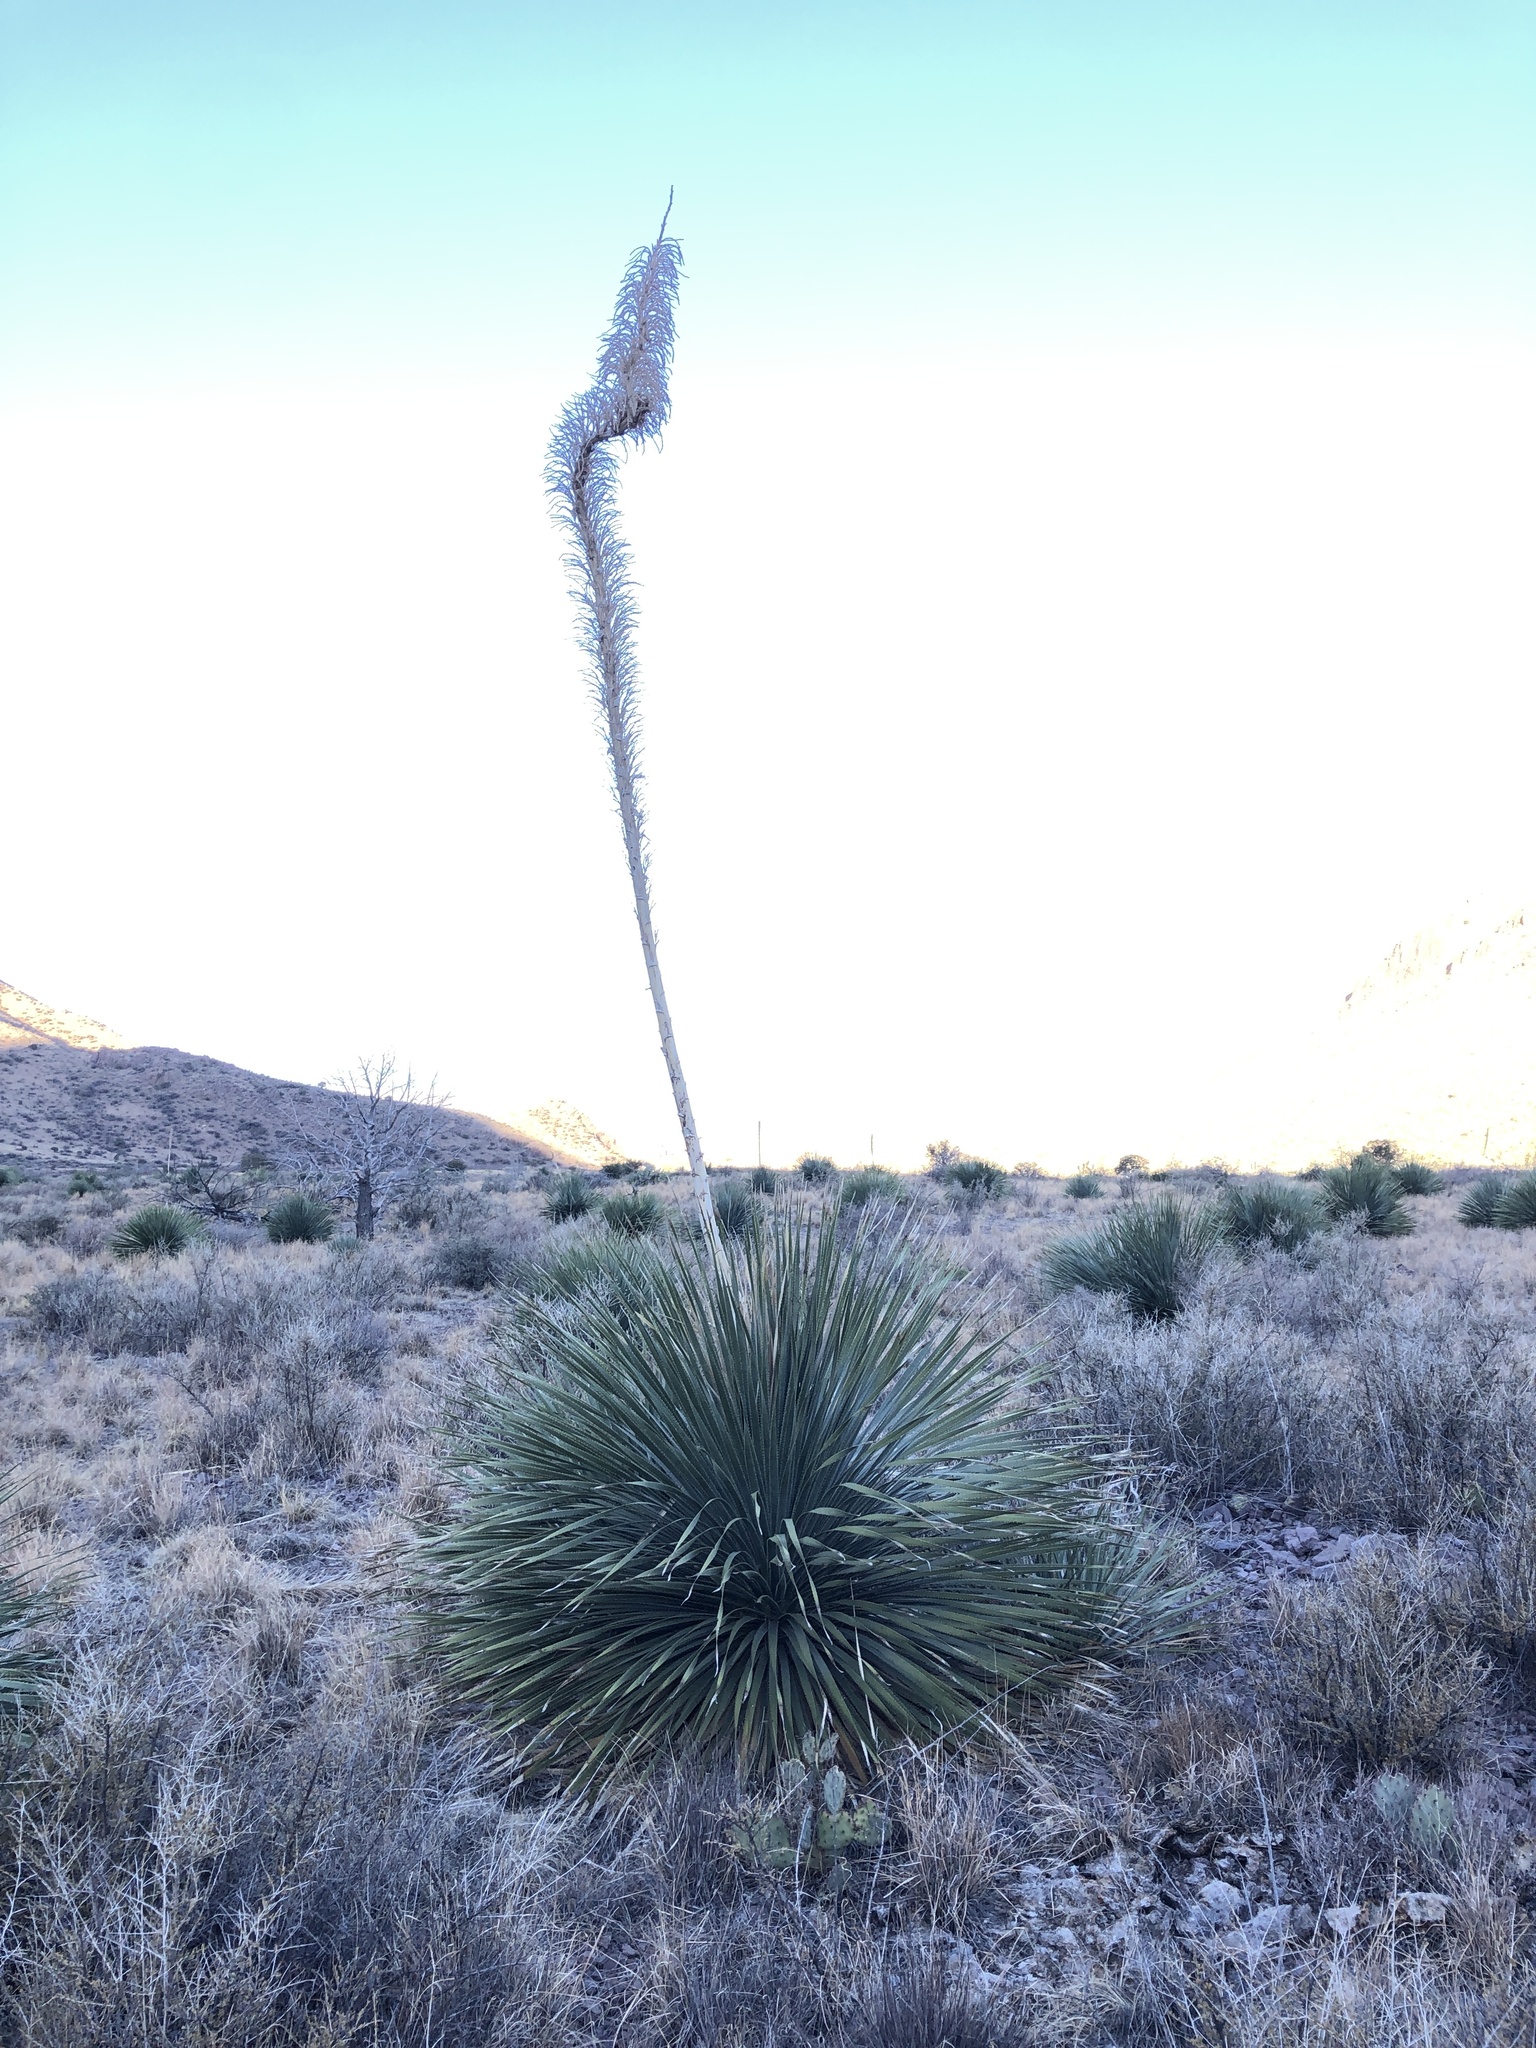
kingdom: Plantae
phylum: Tracheophyta
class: Liliopsida
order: Asparagales
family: Asparagaceae
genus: Dasylirion
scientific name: Dasylirion wheeleri
